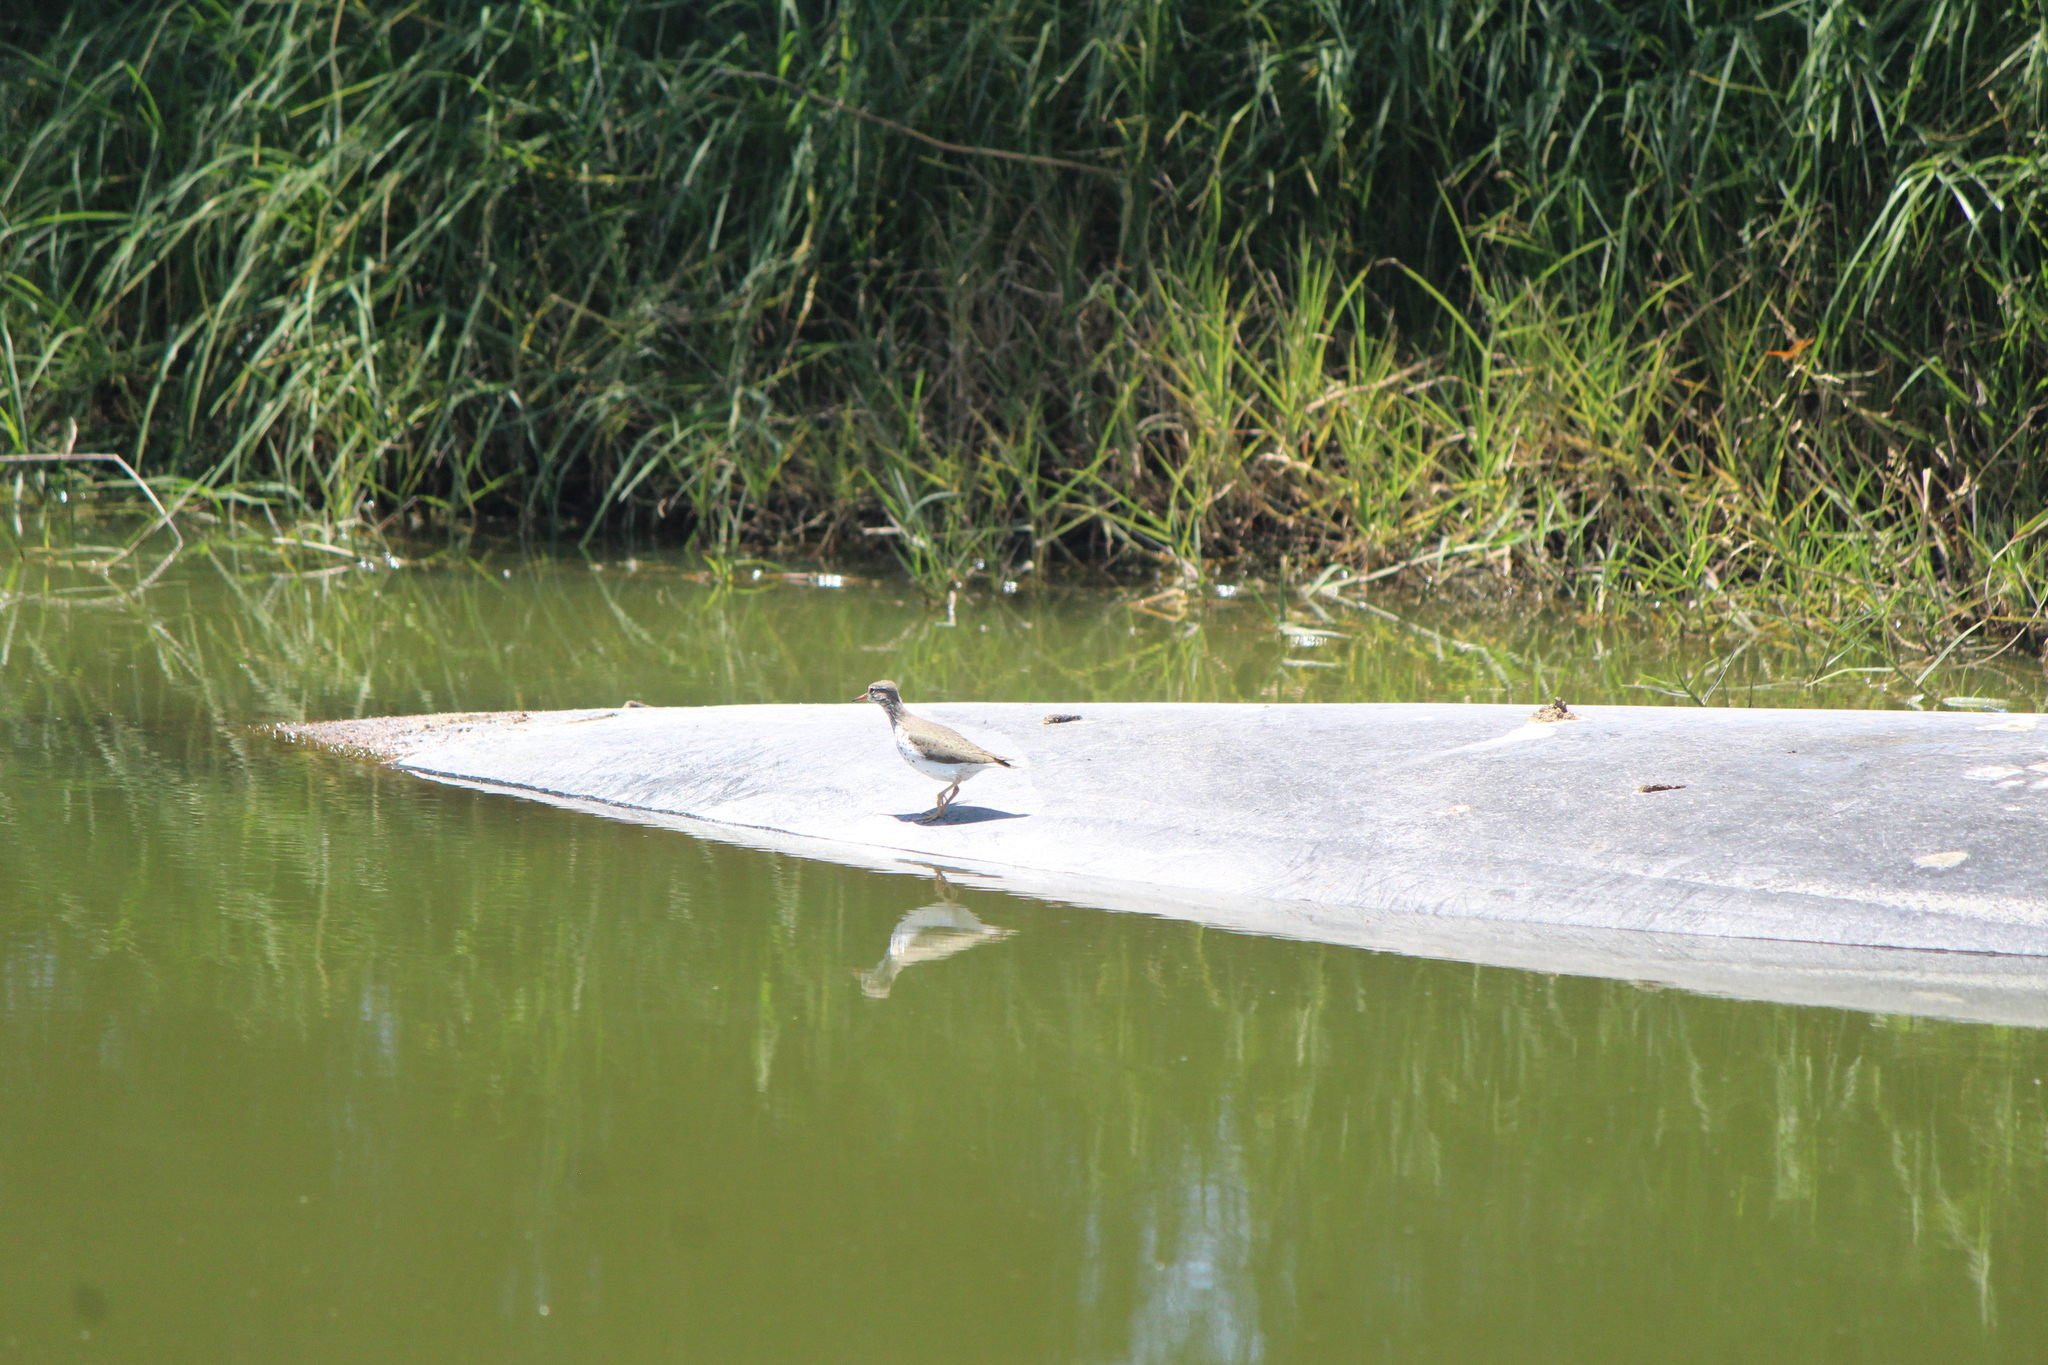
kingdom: Animalia
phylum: Chordata
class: Aves
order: Charadriiformes
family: Scolopacidae
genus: Actitis
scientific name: Actitis macularius
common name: Spotted sandpiper
